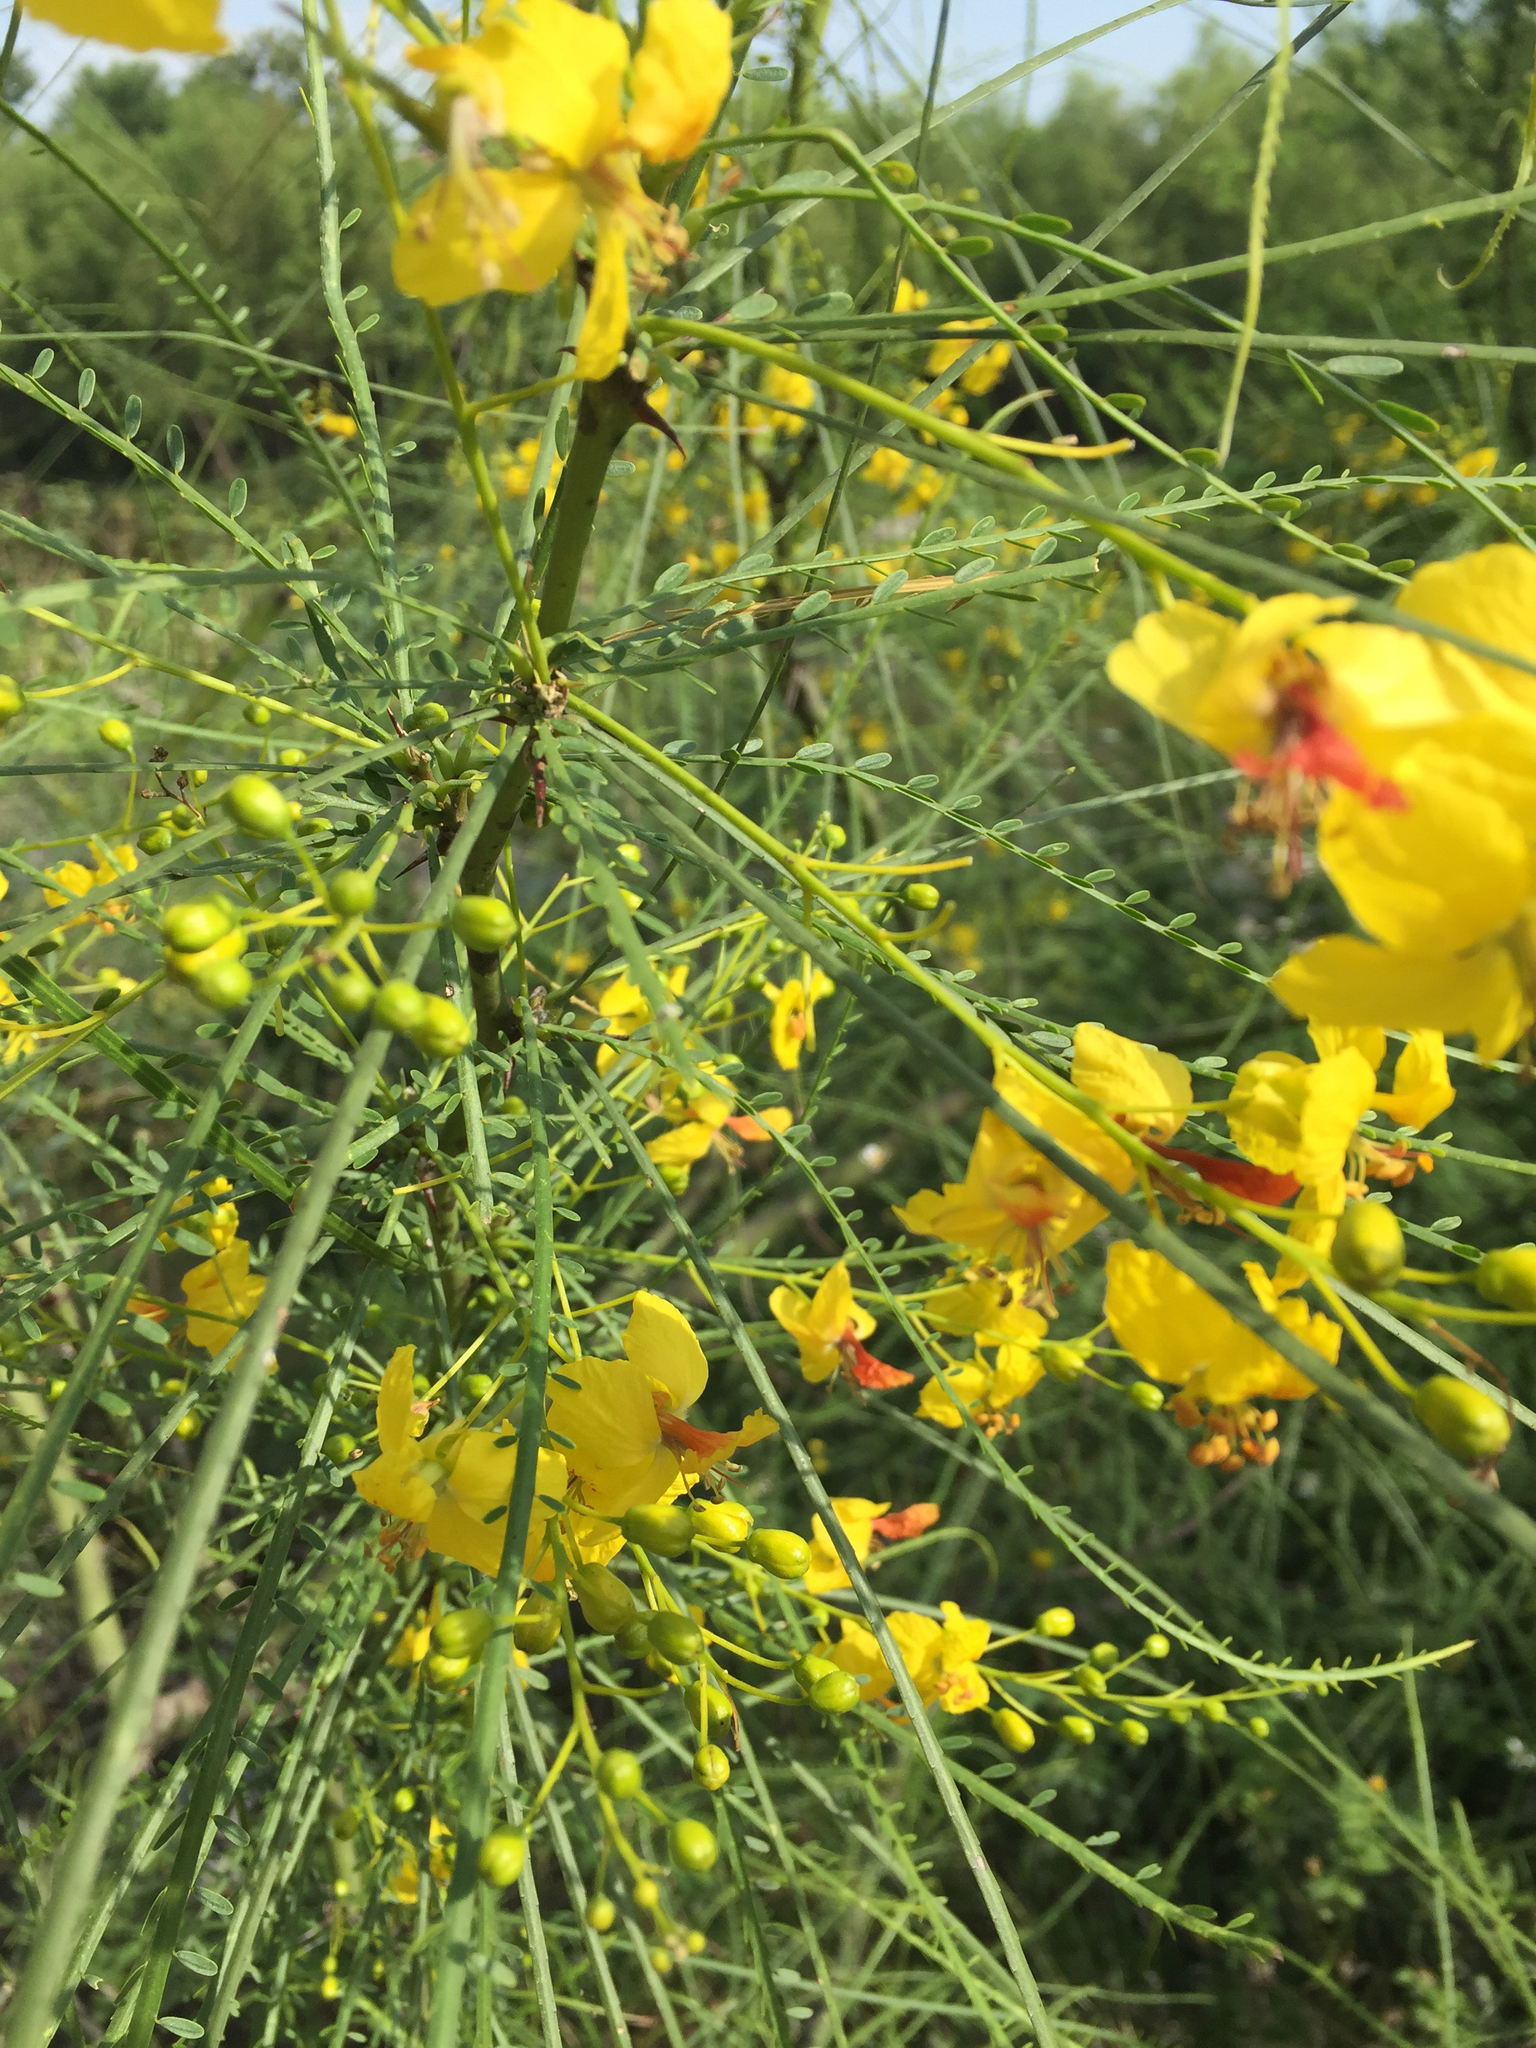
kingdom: Plantae
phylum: Tracheophyta
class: Magnoliopsida
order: Fabales
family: Fabaceae
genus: Parkinsonia
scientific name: Parkinsonia aculeata
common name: Jerusalem thorn
